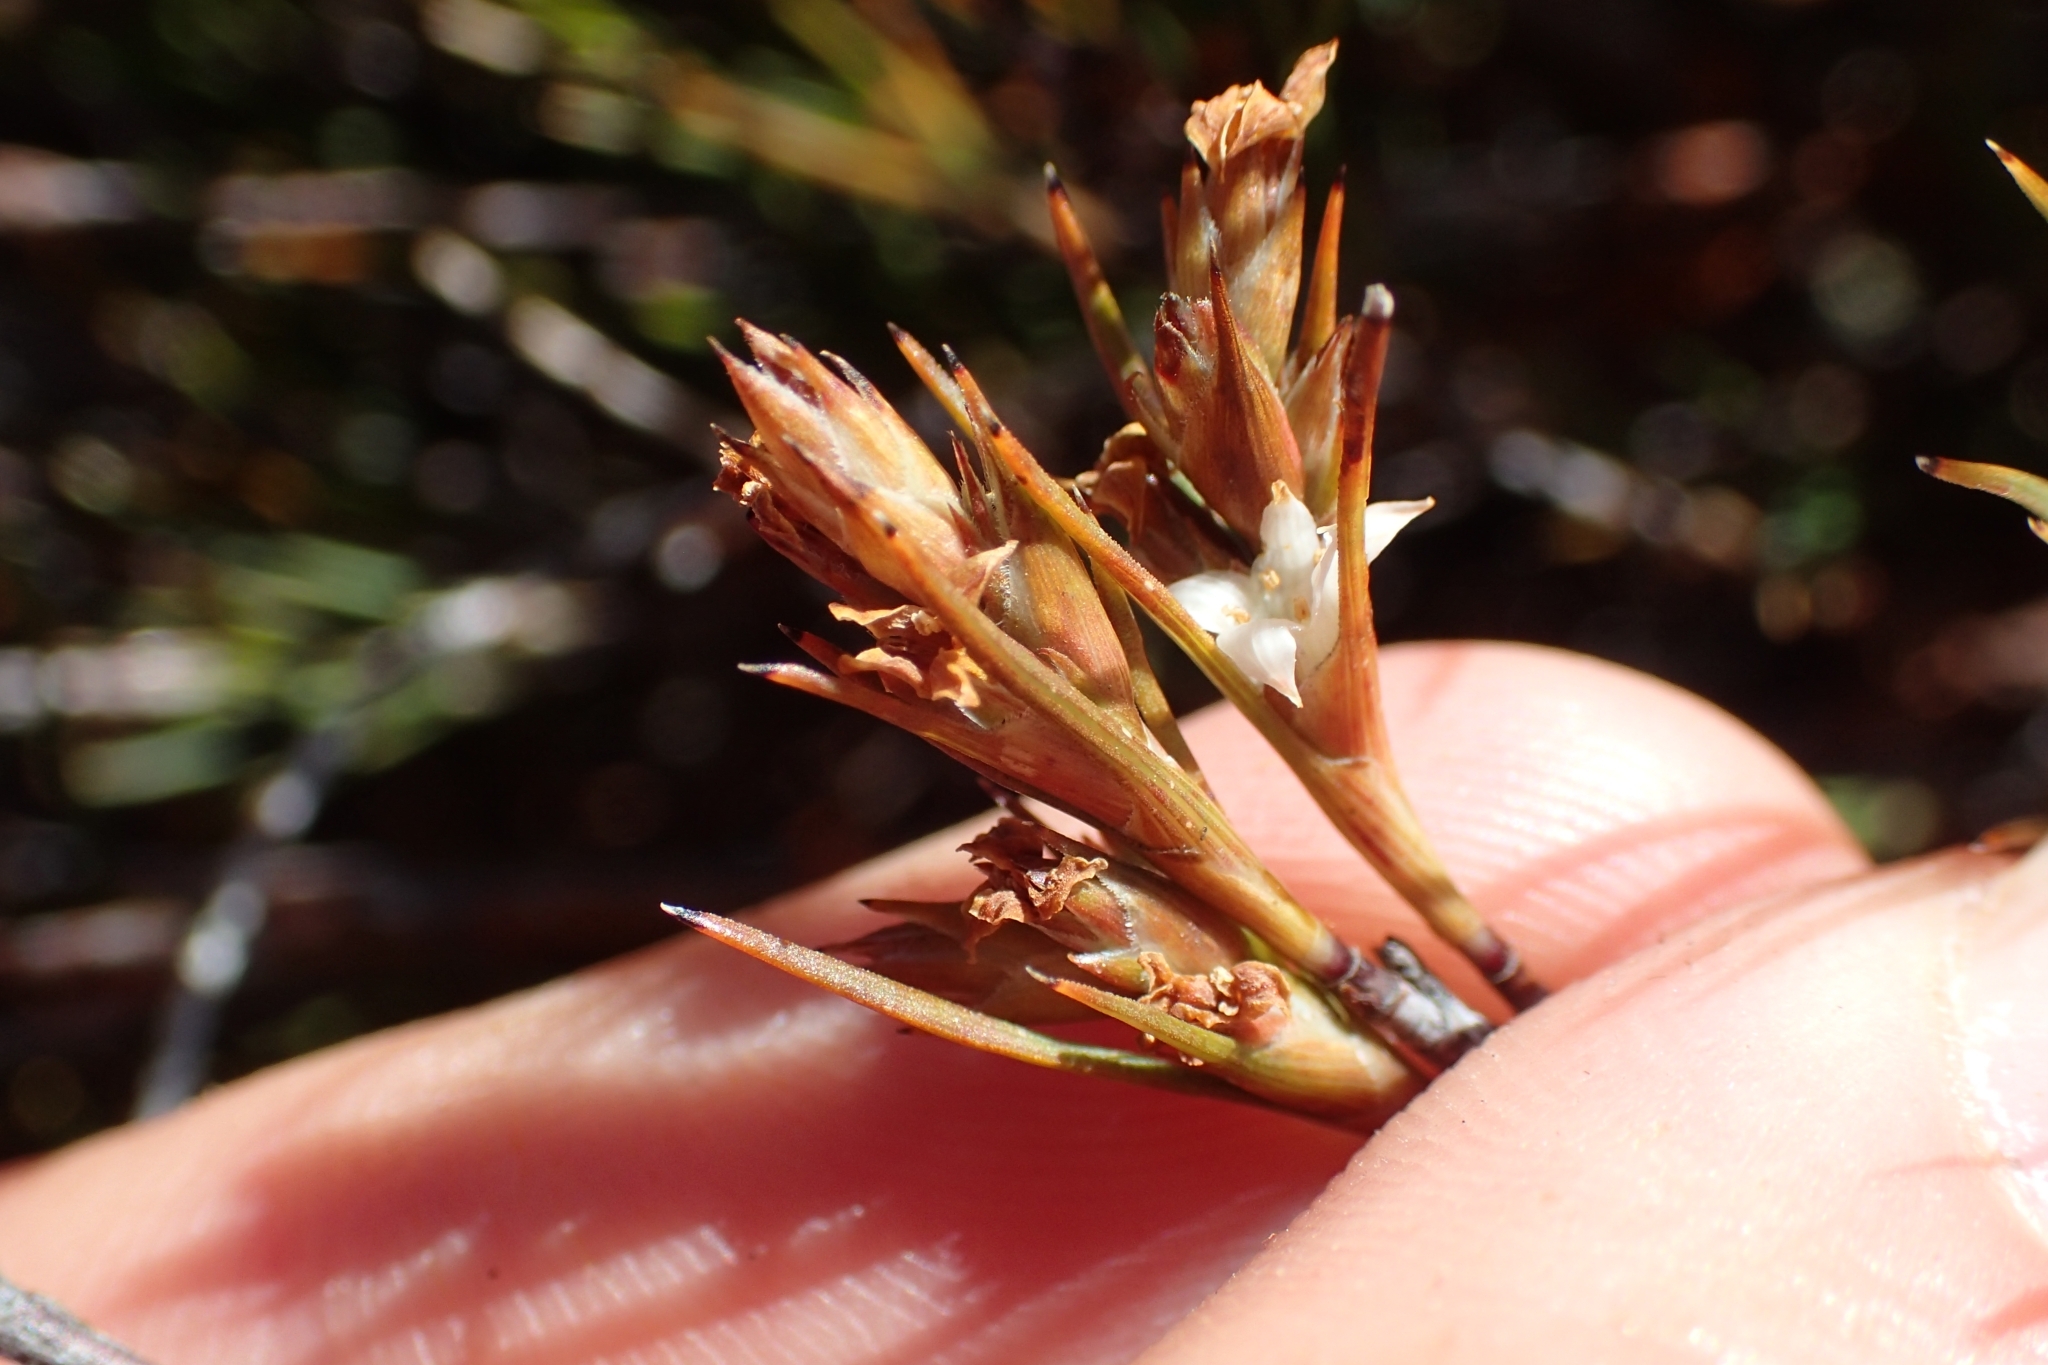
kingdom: Plantae
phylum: Tracheophyta
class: Magnoliopsida
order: Ericales
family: Ericaceae
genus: Dracophyllum
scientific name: Dracophyllum subulatum
